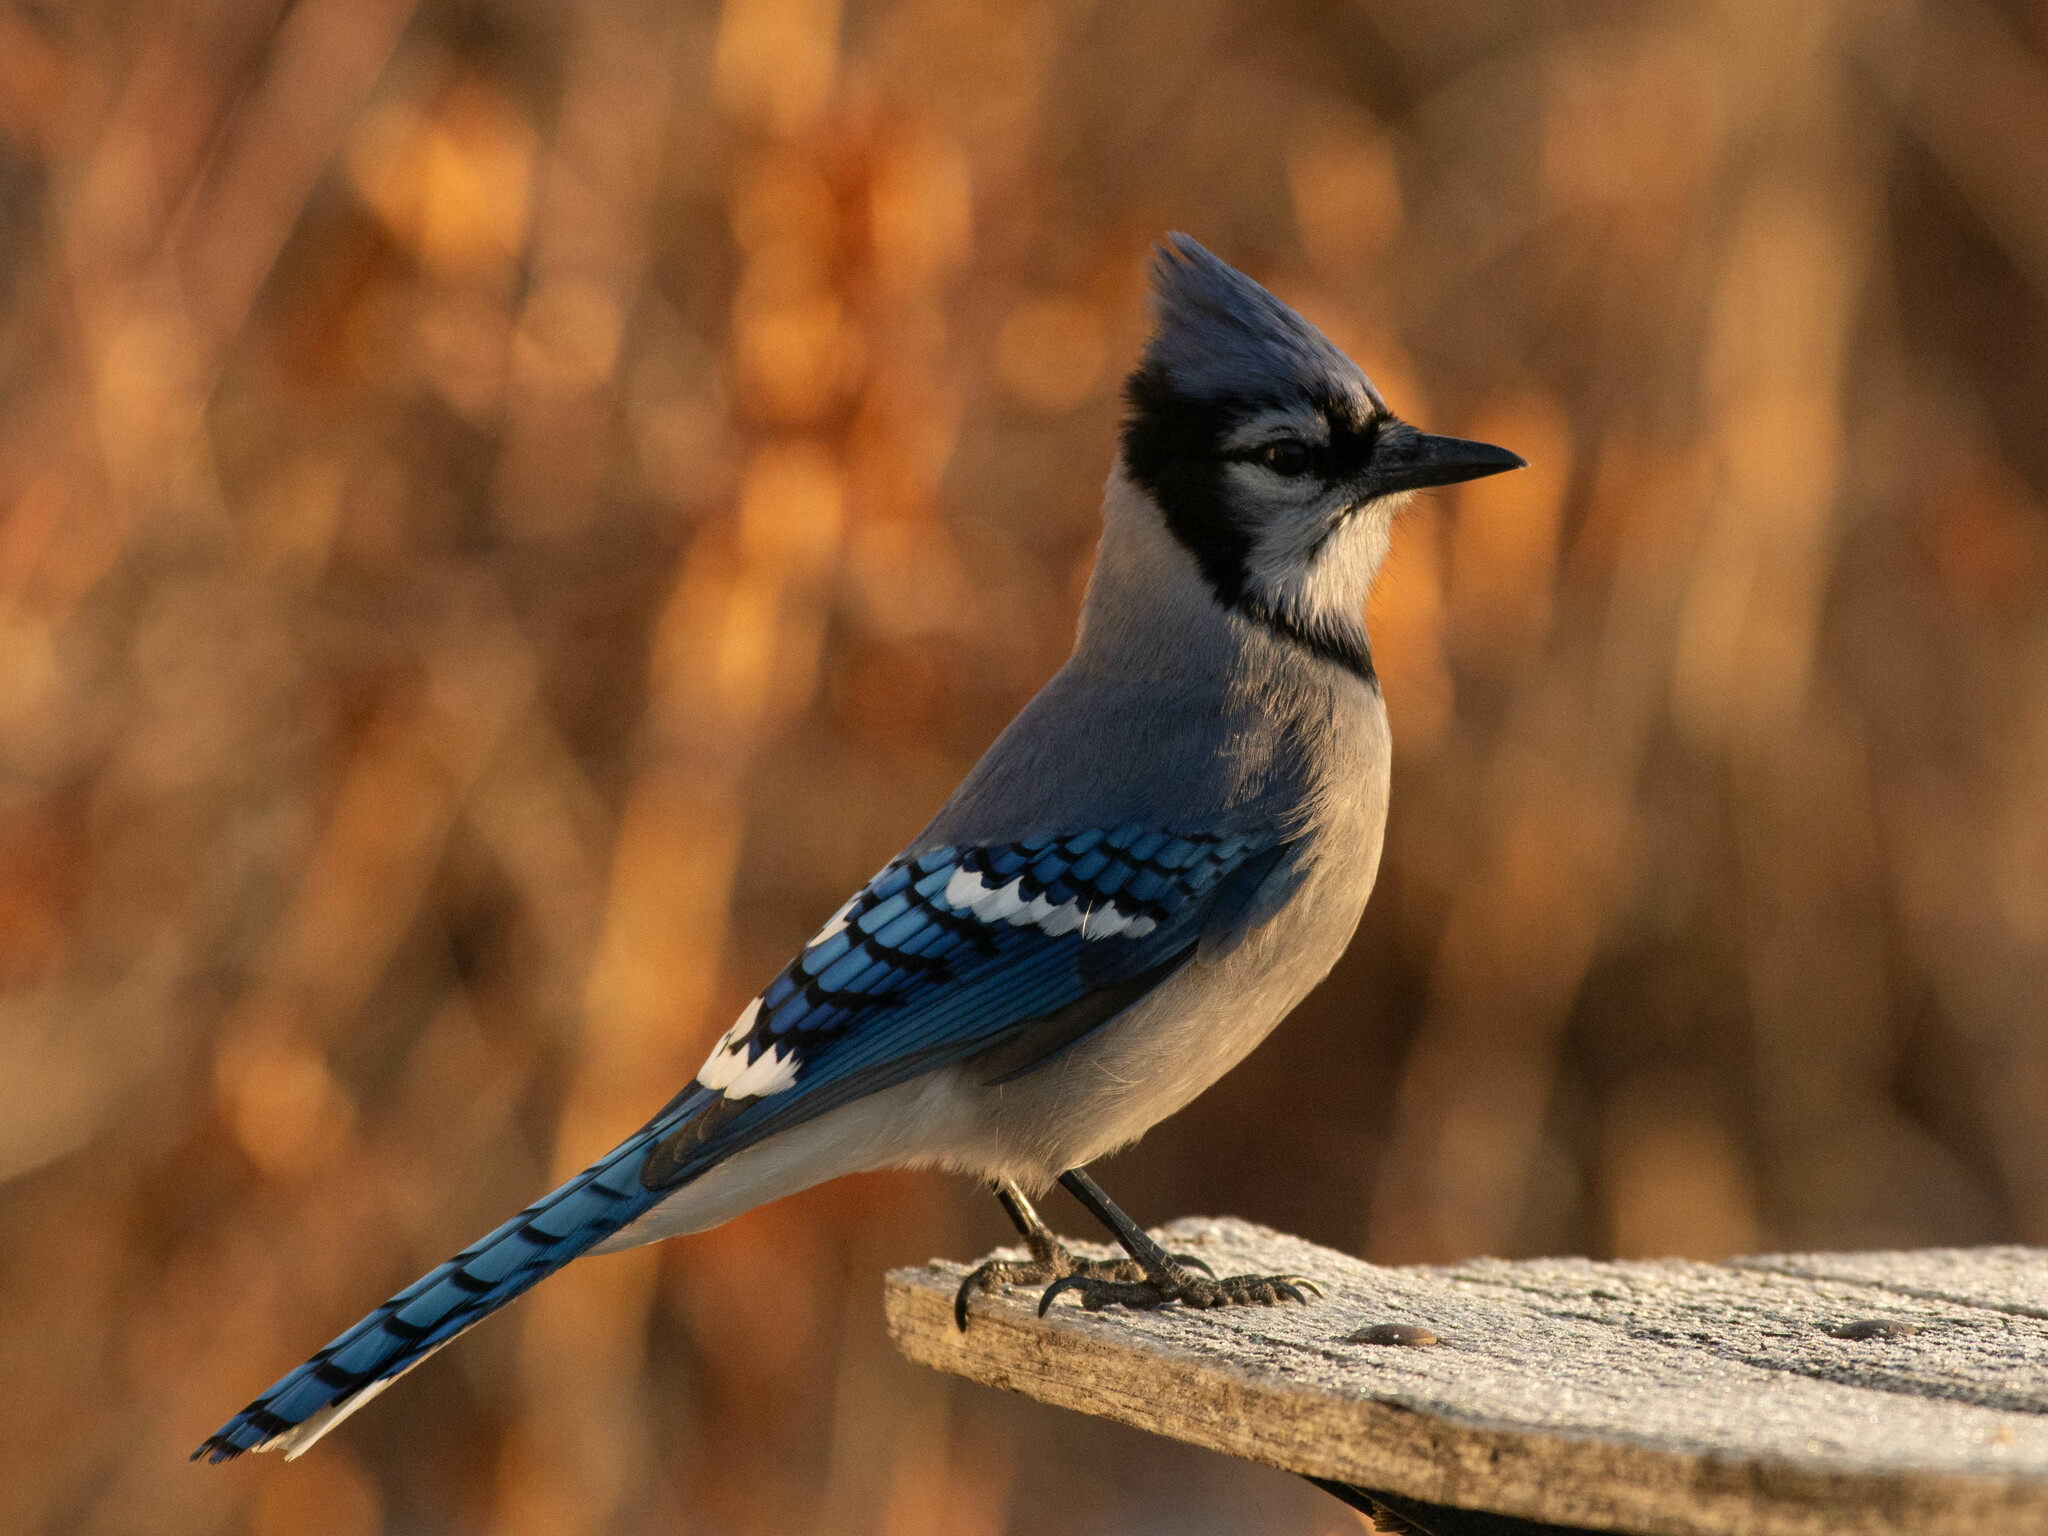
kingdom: Animalia
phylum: Chordata
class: Aves
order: Passeriformes
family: Corvidae
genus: Cyanocitta
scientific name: Cyanocitta cristata
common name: Blue jay
